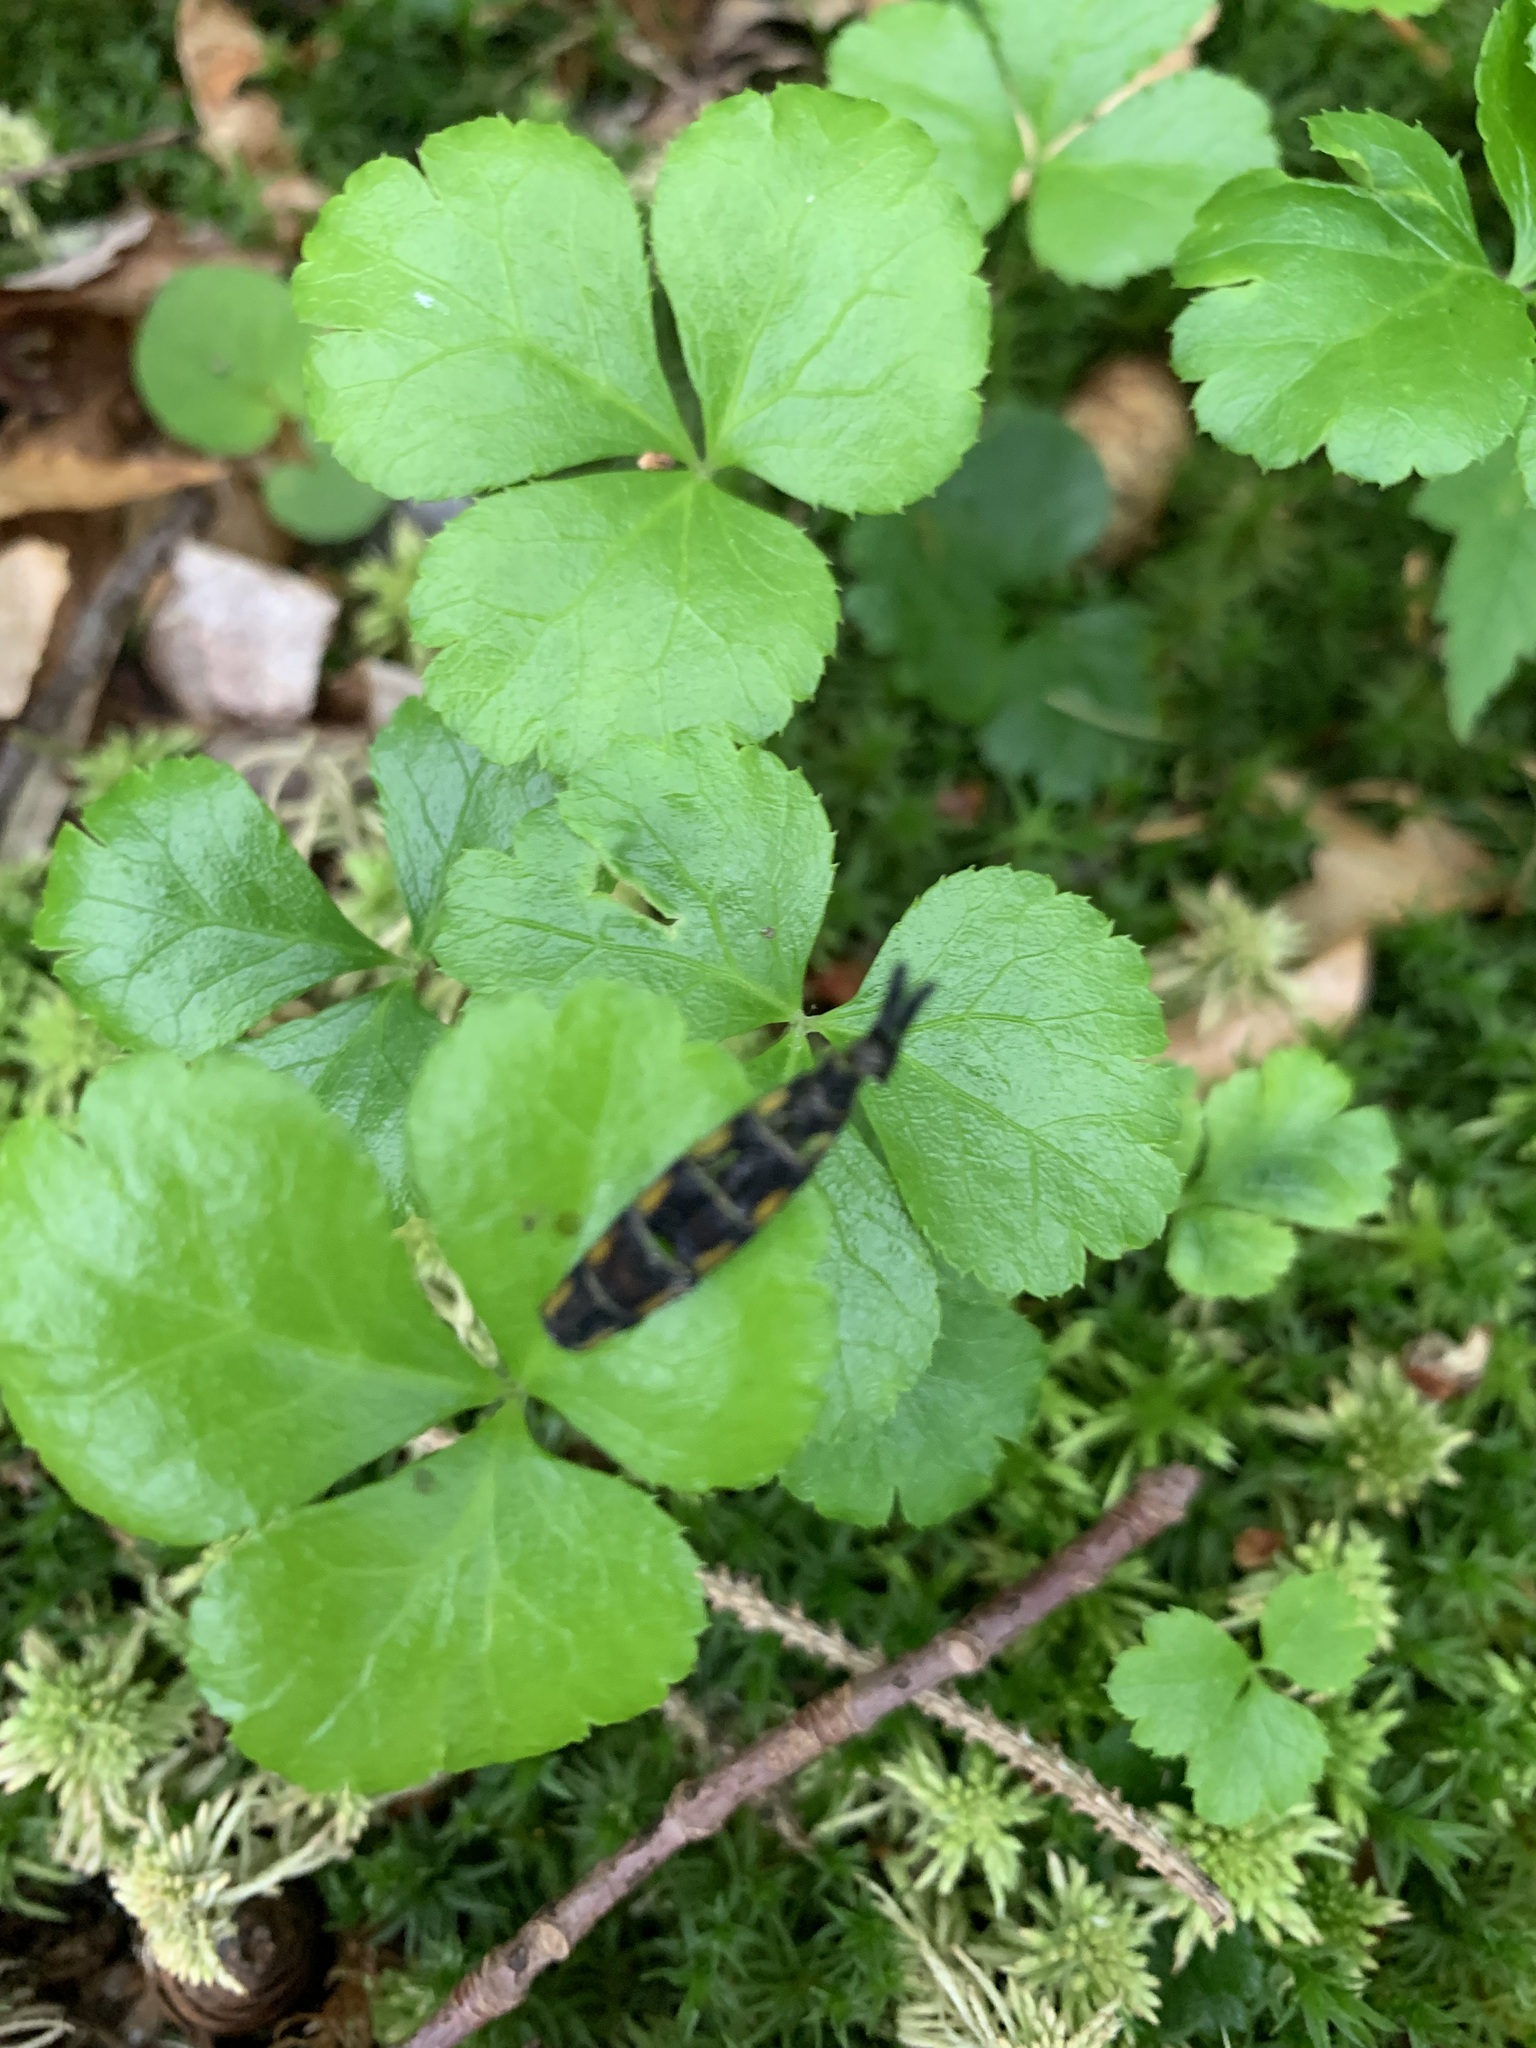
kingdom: Plantae
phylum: Tracheophyta
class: Magnoliopsida
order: Ranunculales
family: Ranunculaceae
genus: Coptis
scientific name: Coptis trifolia
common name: Canker-root
